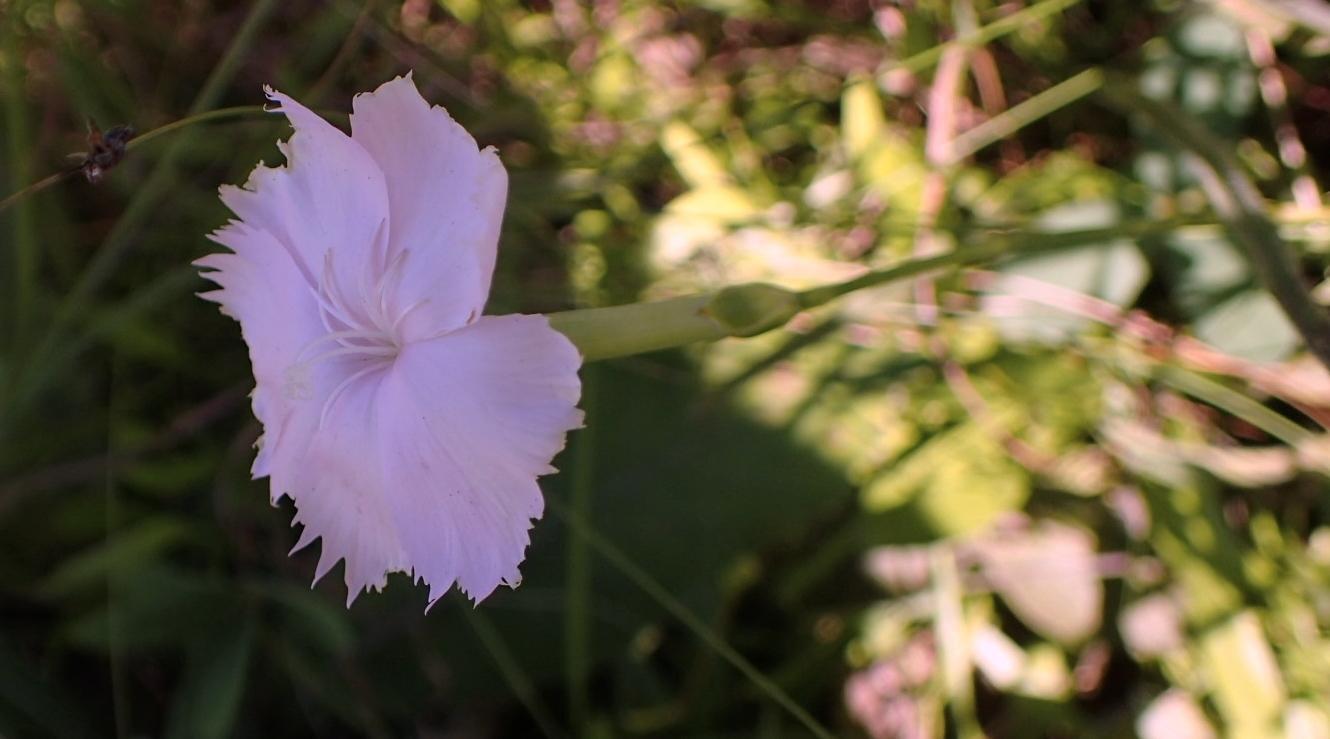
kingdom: Plantae
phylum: Tracheophyta
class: Magnoliopsida
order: Caryophyllales
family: Caryophyllaceae
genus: Dianthus
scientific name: Dianthus zeyheri
